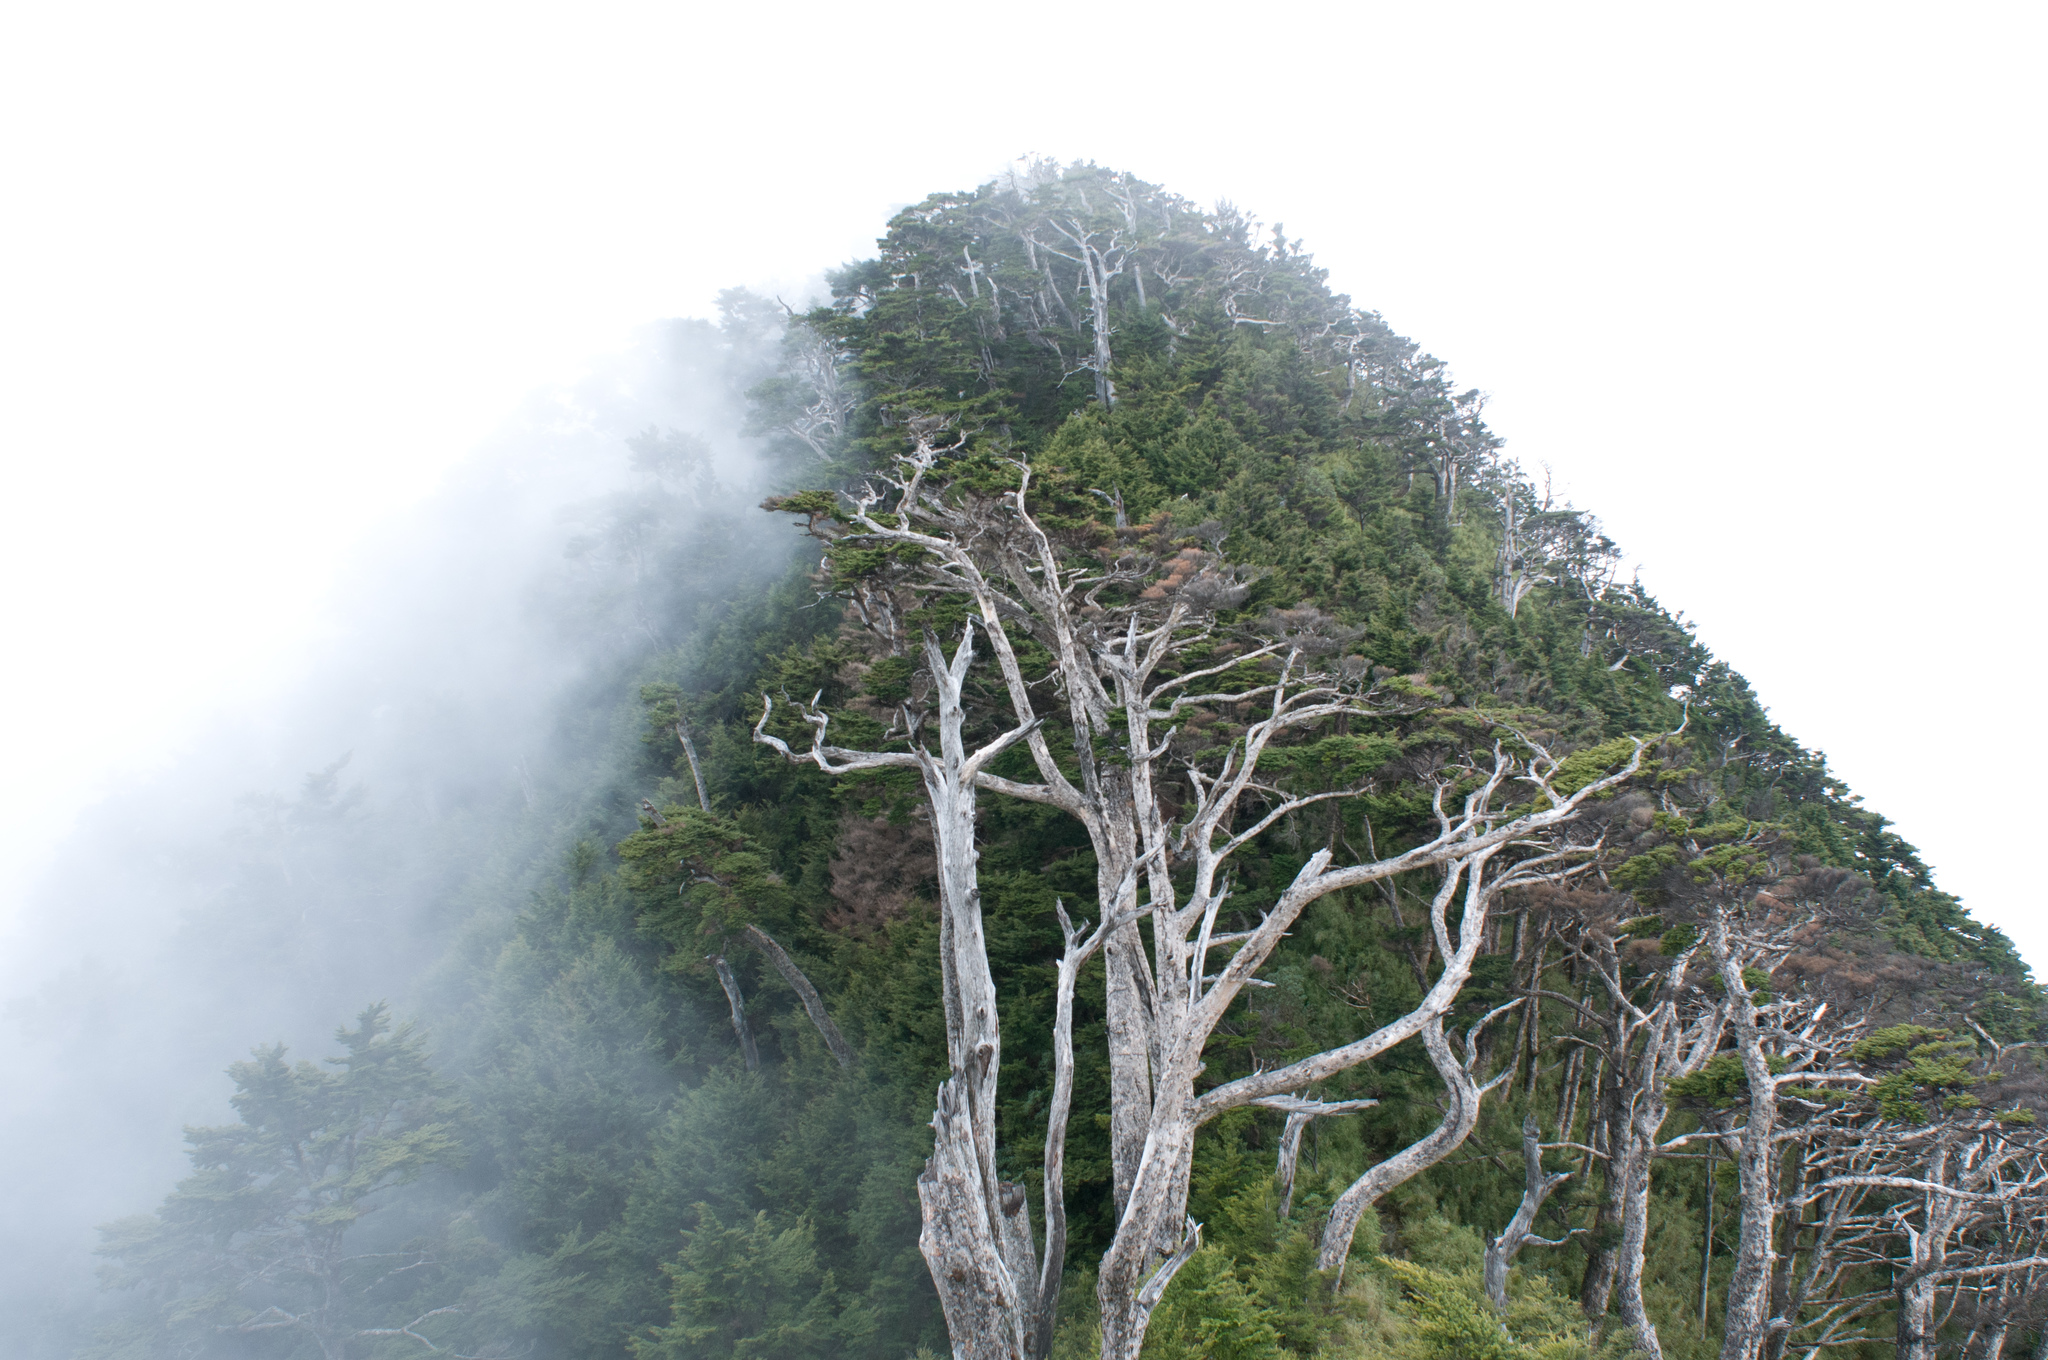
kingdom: Plantae
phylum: Tracheophyta
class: Pinopsida
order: Pinales
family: Pinaceae
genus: Tsuga
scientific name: Tsuga chinensis
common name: Chinese hemlock
